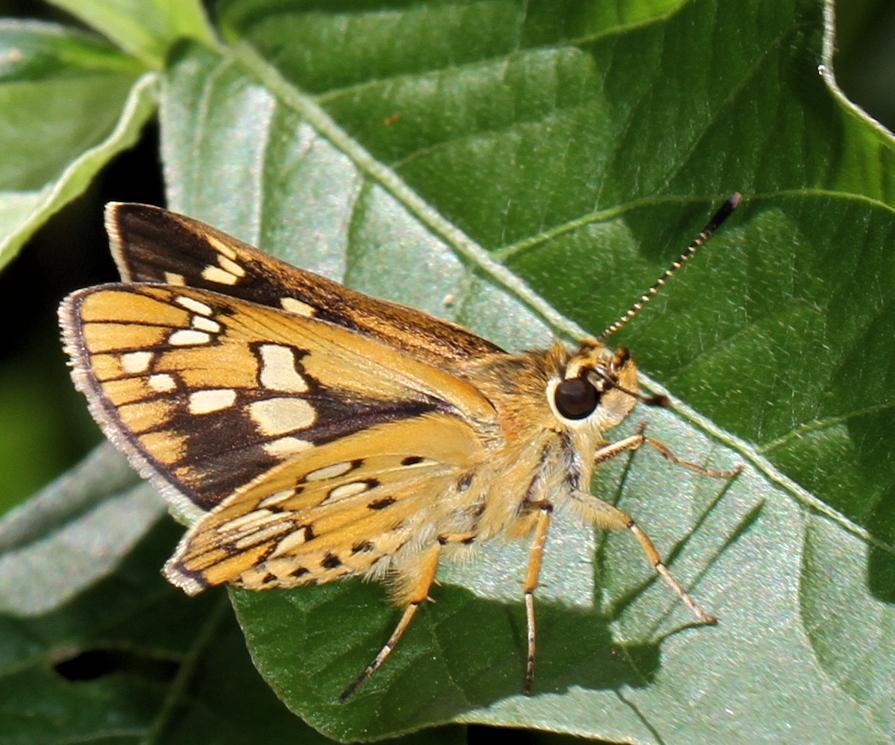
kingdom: Animalia
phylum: Arthropoda
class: Insecta
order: Lepidoptera
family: Hesperiidae
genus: Dotta
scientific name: Dotta
